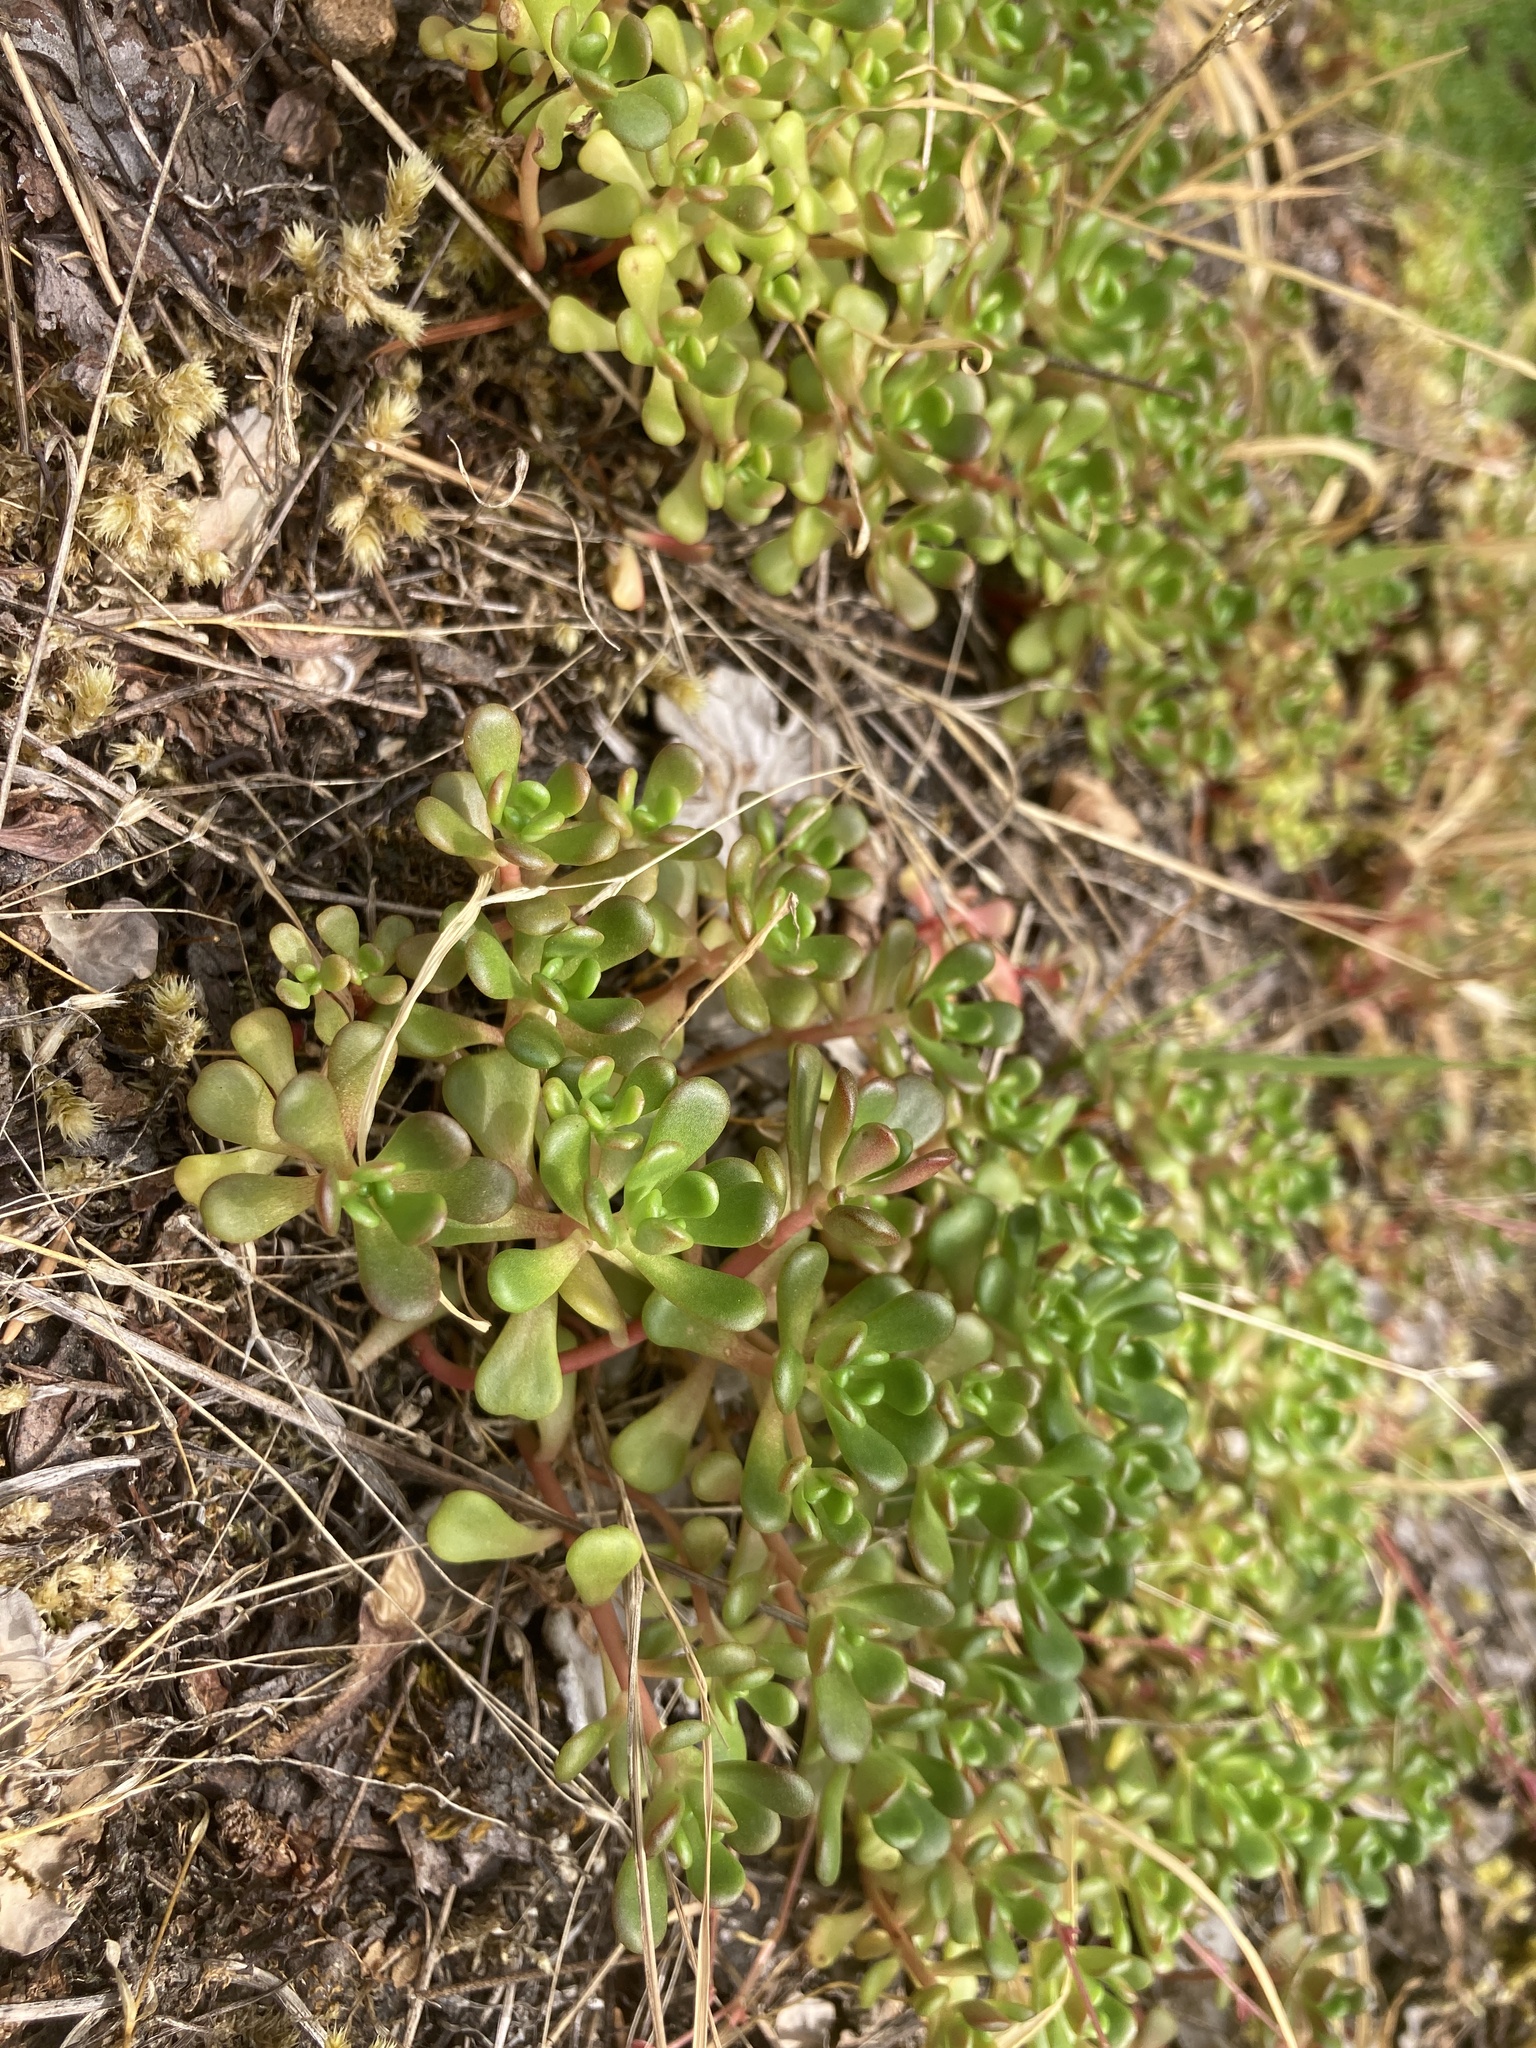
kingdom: Plantae
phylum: Tracheophyta
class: Magnoliopsida
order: Saxifragales
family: Crassulaceae
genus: Sedum
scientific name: Sedum oreganum
